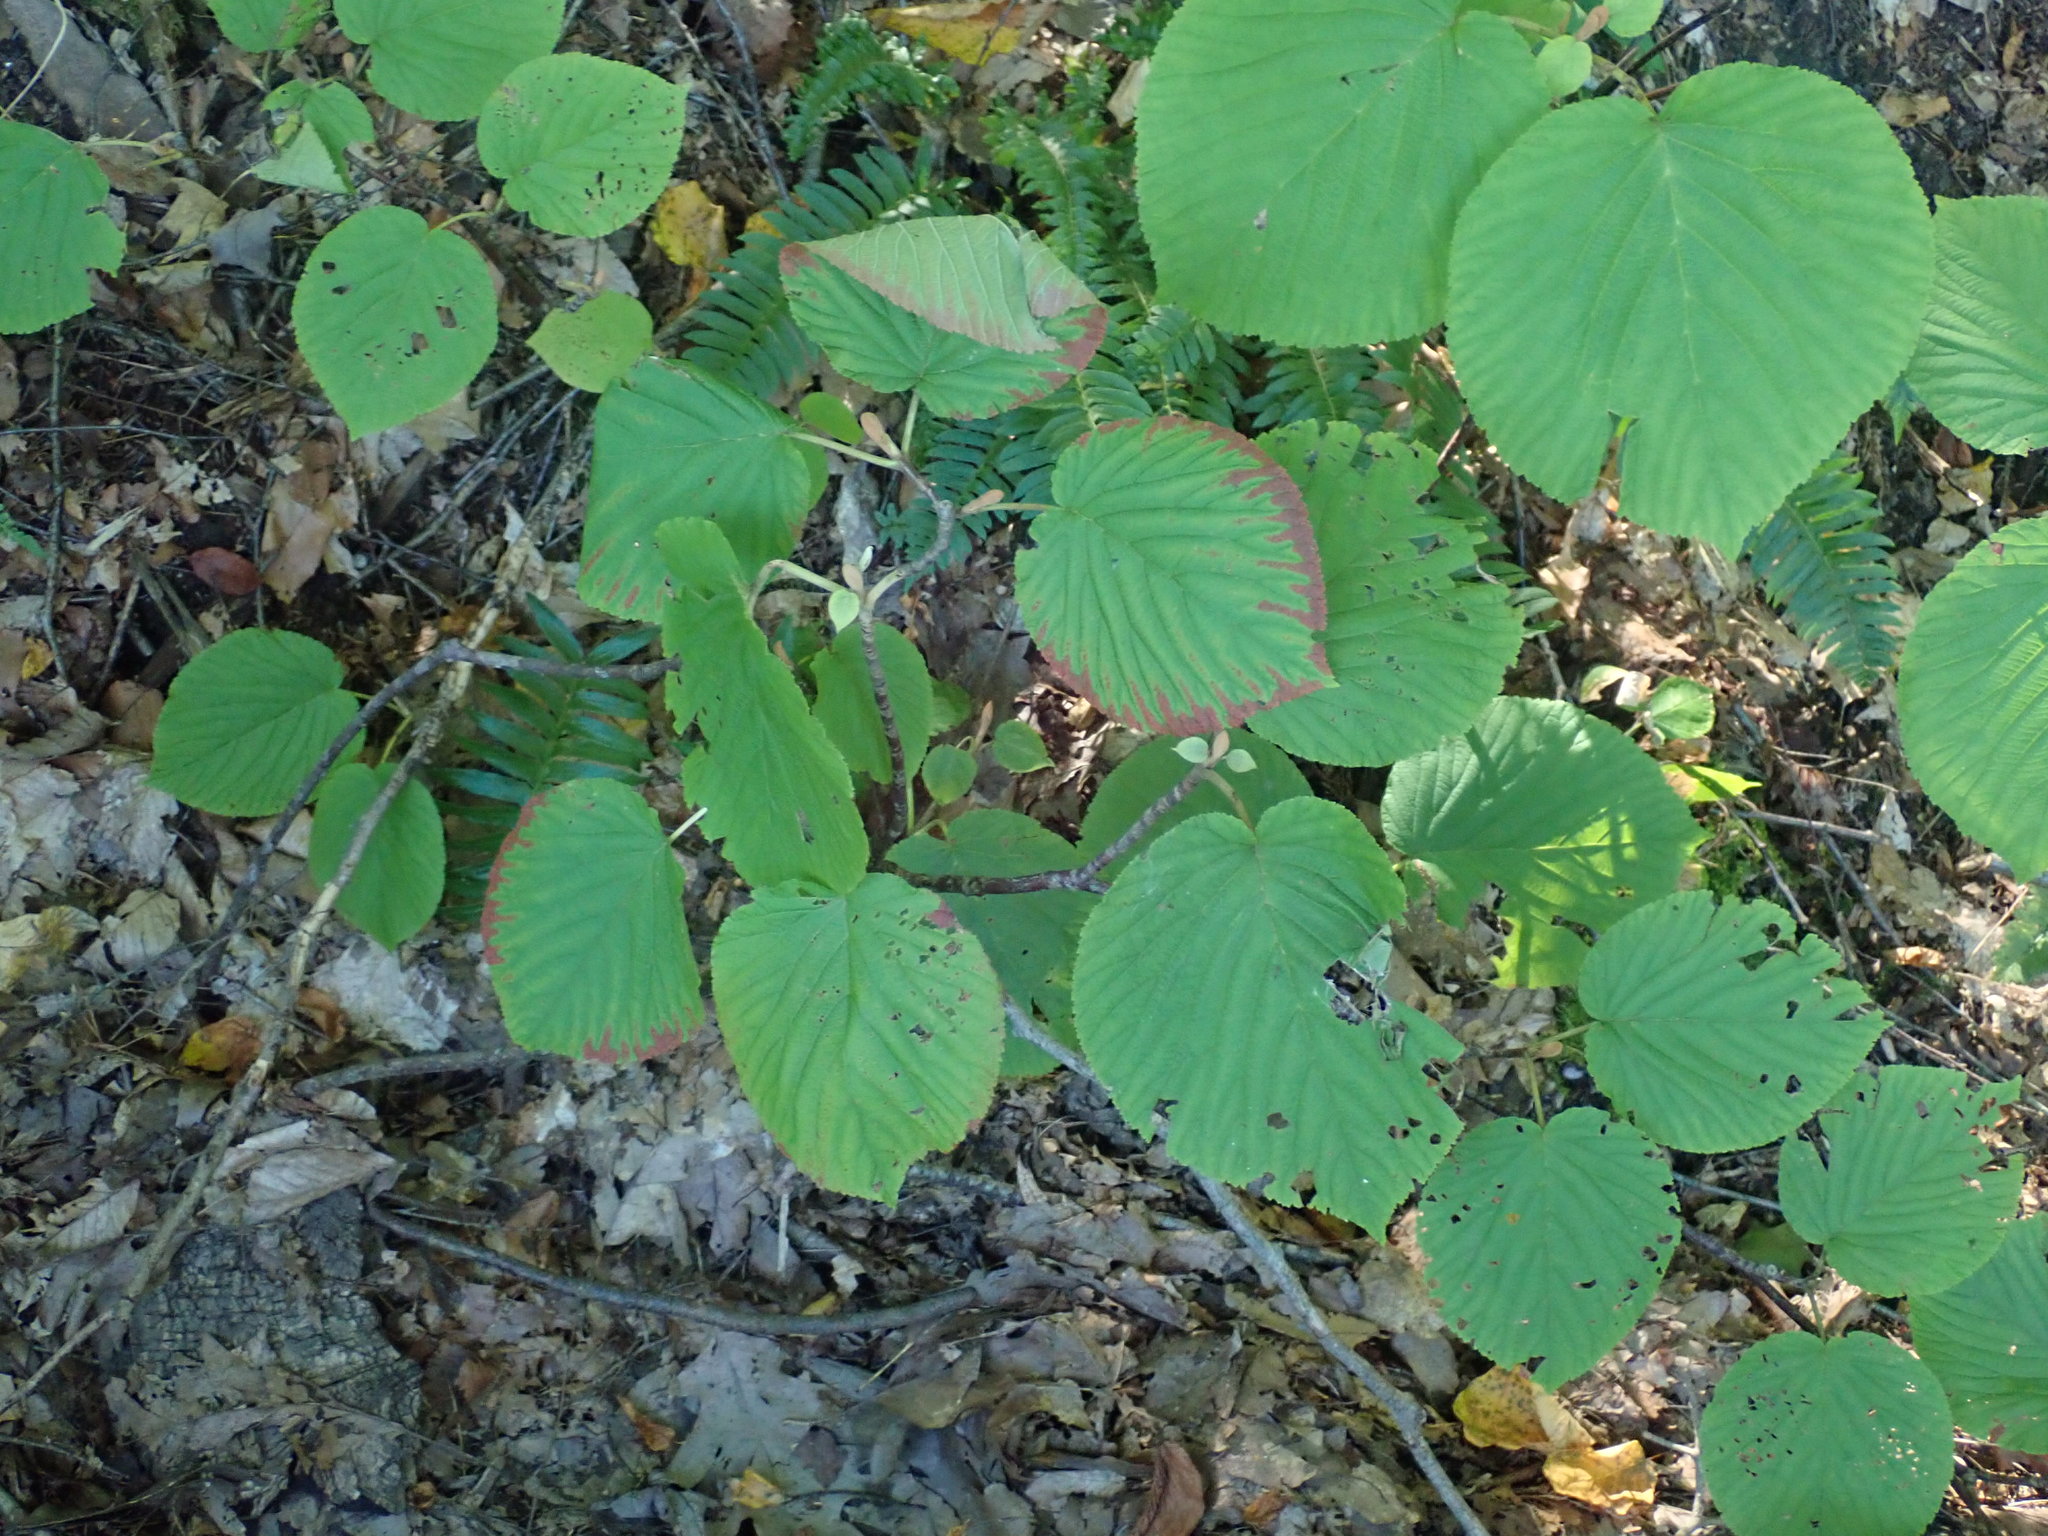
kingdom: Plantae
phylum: Tracheophyta
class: Magnoliopsida
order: Dipsacales
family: Viburnaceae
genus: Viburnum
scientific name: Viburnum lantanoides
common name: Hobblebush
